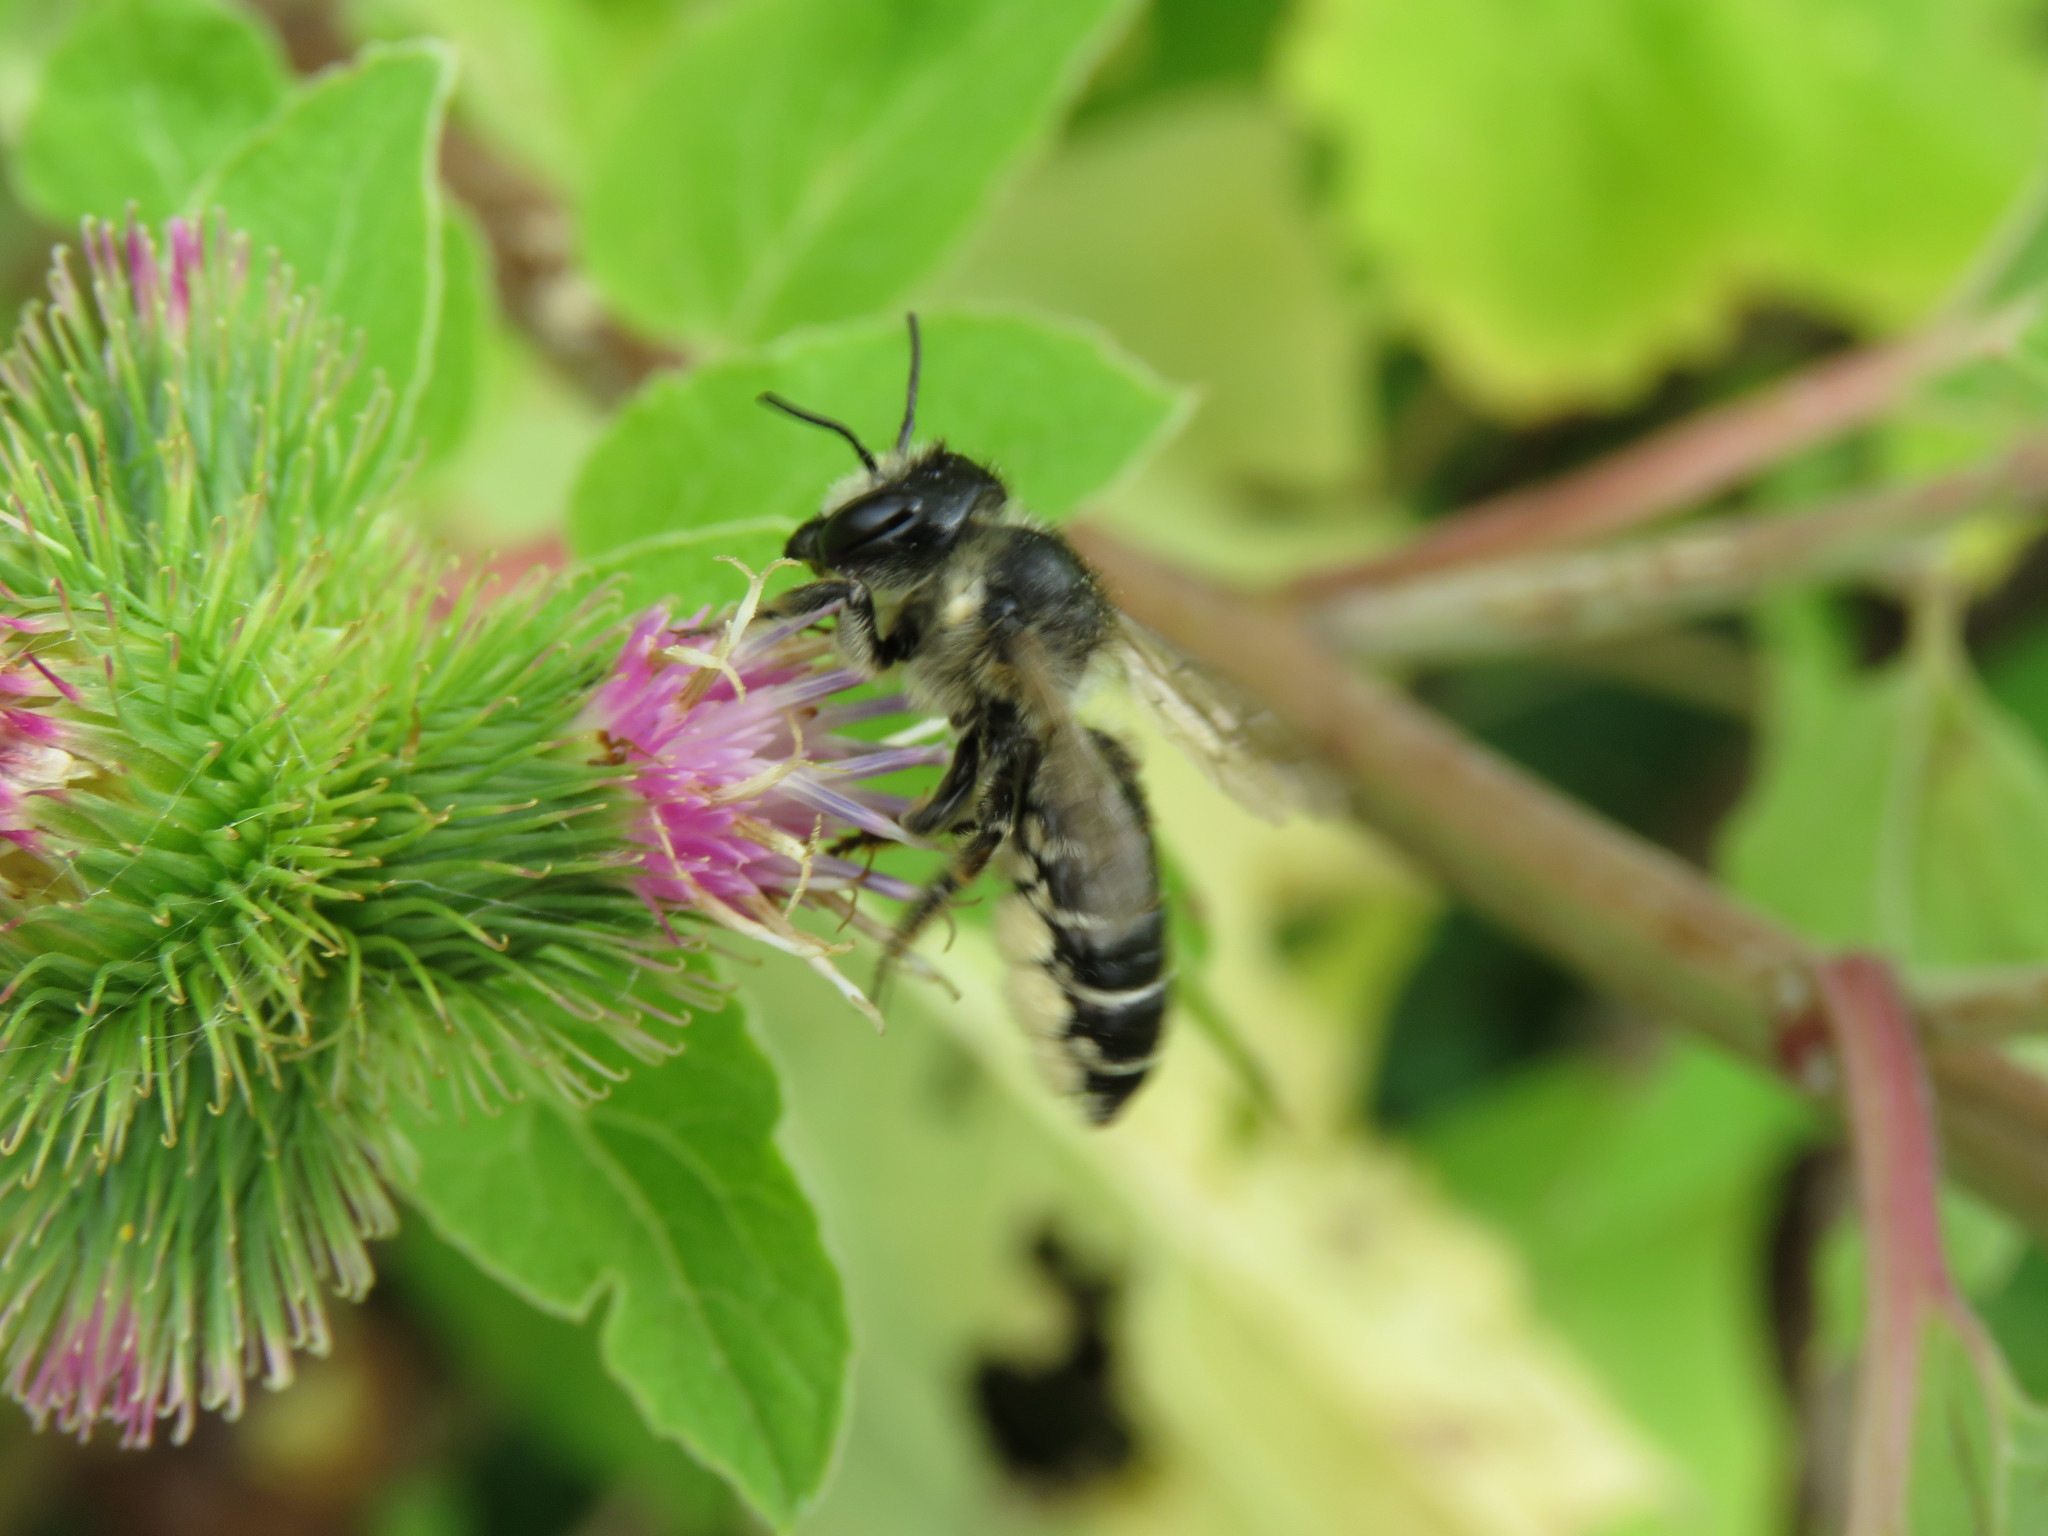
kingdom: Animalia
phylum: Arthropoda
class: Insecta
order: Hymenoptera
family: Megachilidae
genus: Megachile
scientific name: Megachile inermis
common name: Unarmed leafcutter bee
